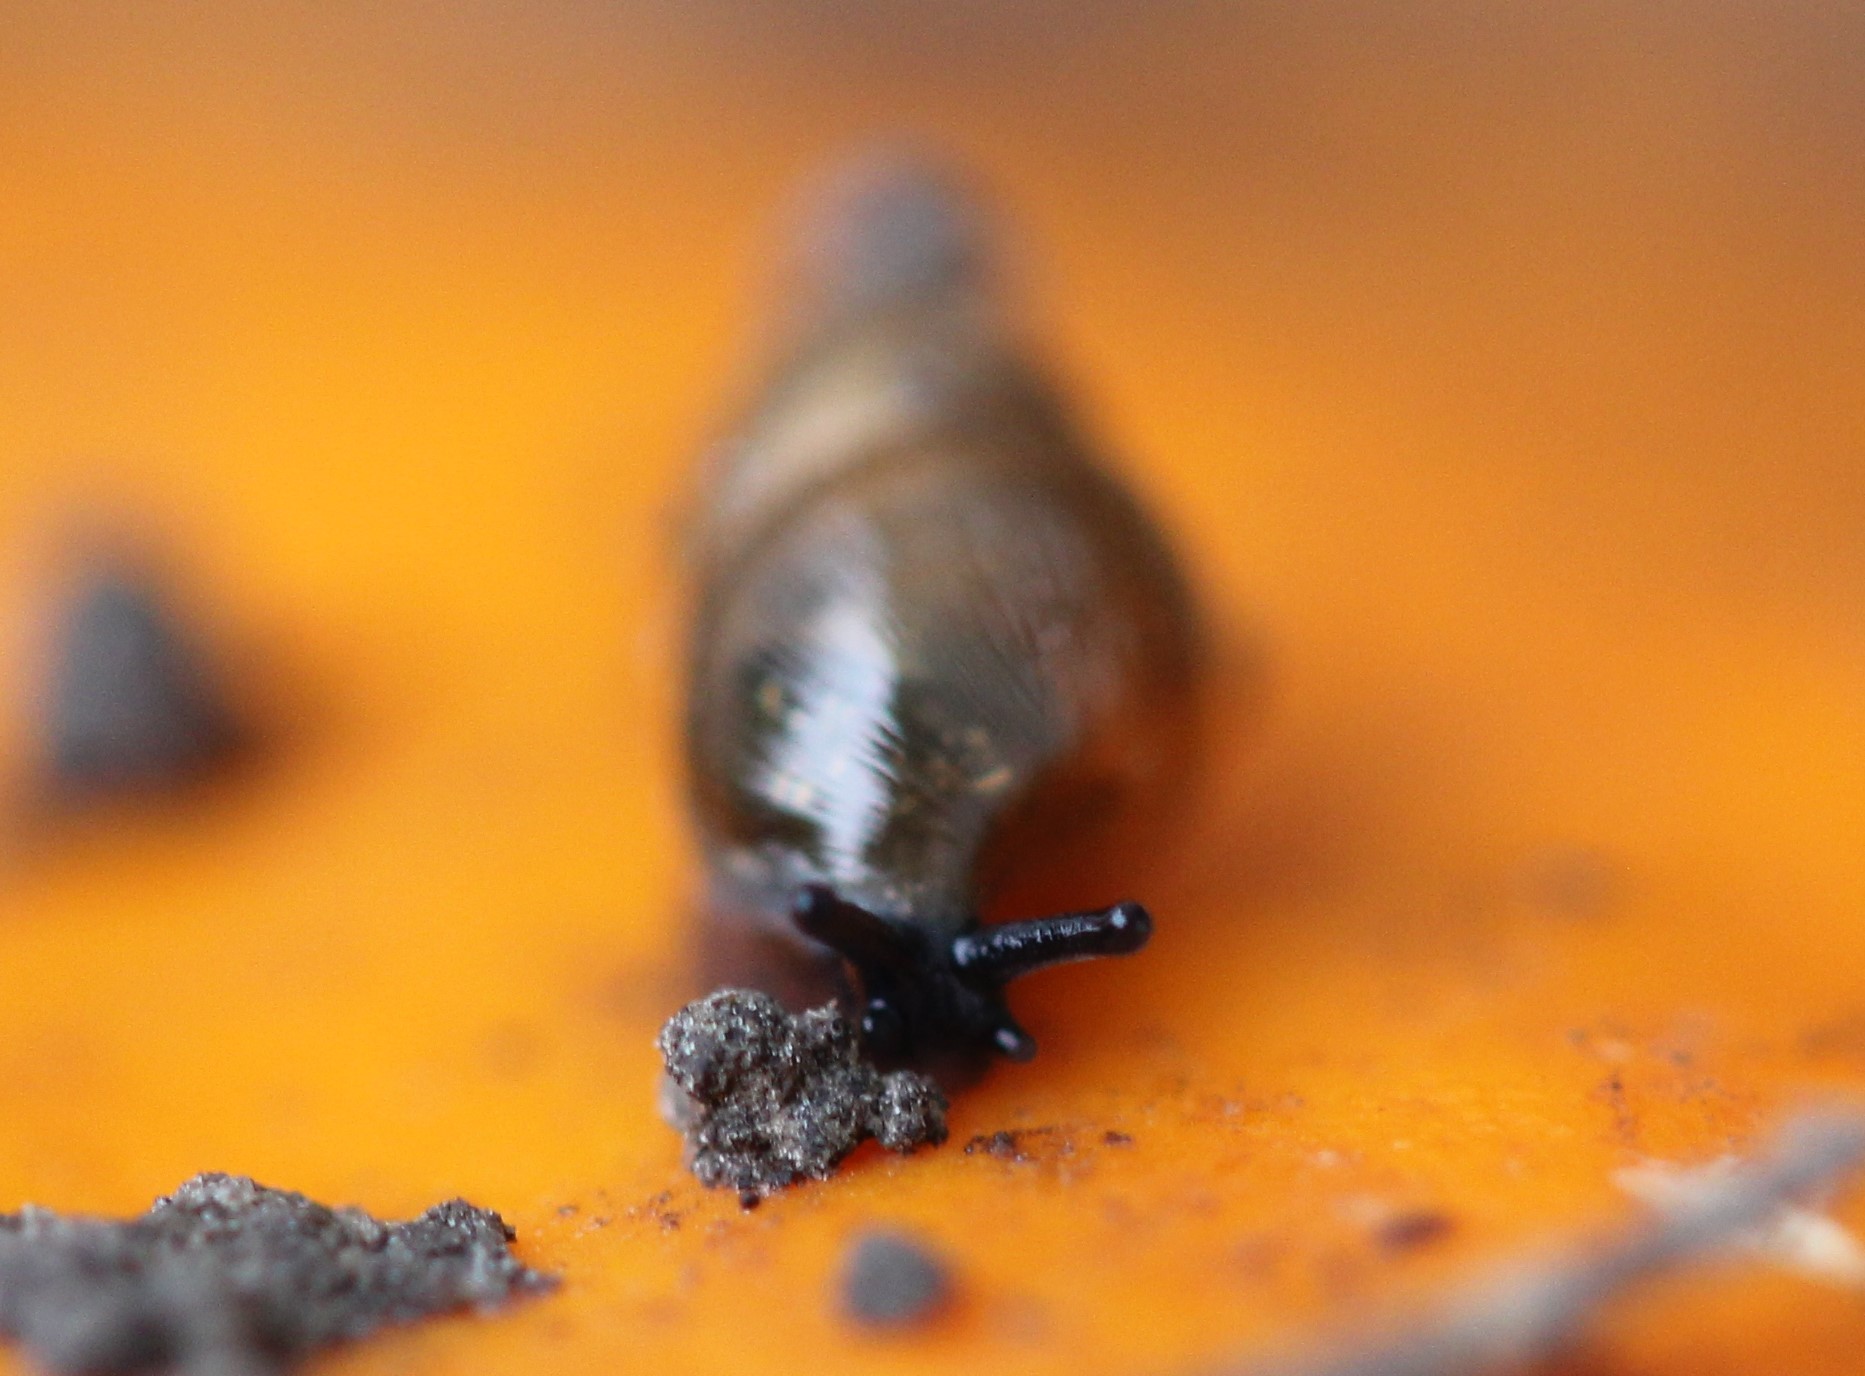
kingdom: Animalia
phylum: Mollusca
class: Gastropoda
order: Stylommatophora
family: Cochlicopidae
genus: Cochlicopa
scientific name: Cochlicopa lubrica
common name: Glossy pillar snail
